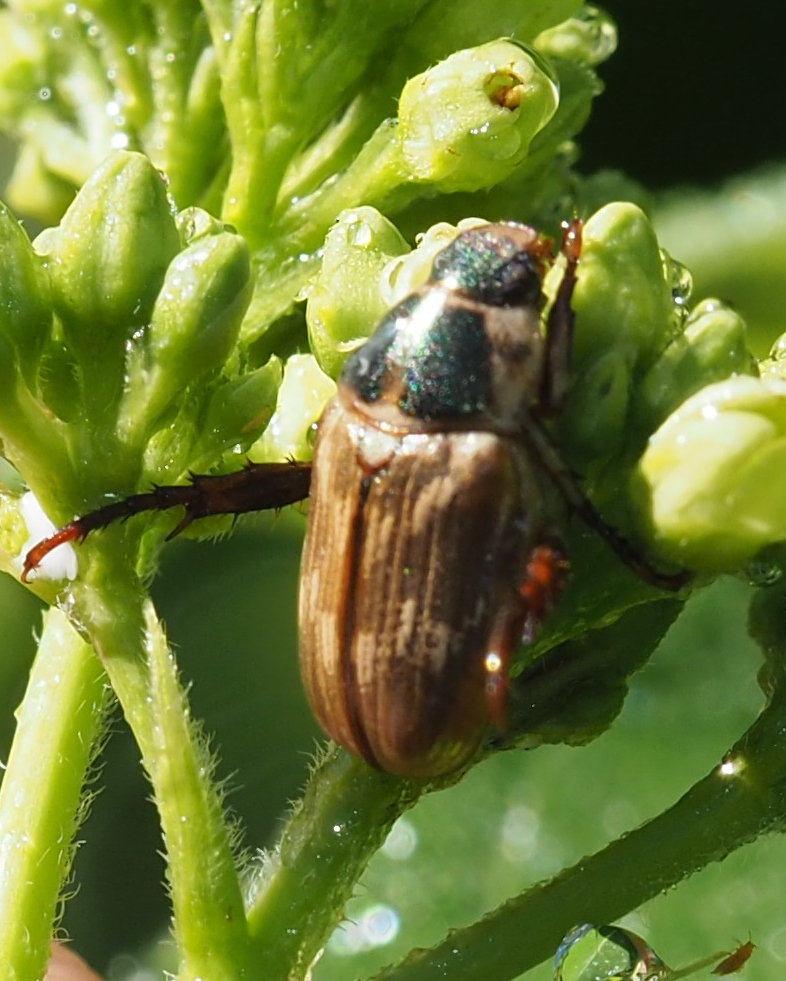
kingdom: Animalia
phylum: Arthropoda
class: Insecta
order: Coleoptera
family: Scarabaeidae
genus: Exomala
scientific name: Exomala orientalis
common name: Oriental beetle
